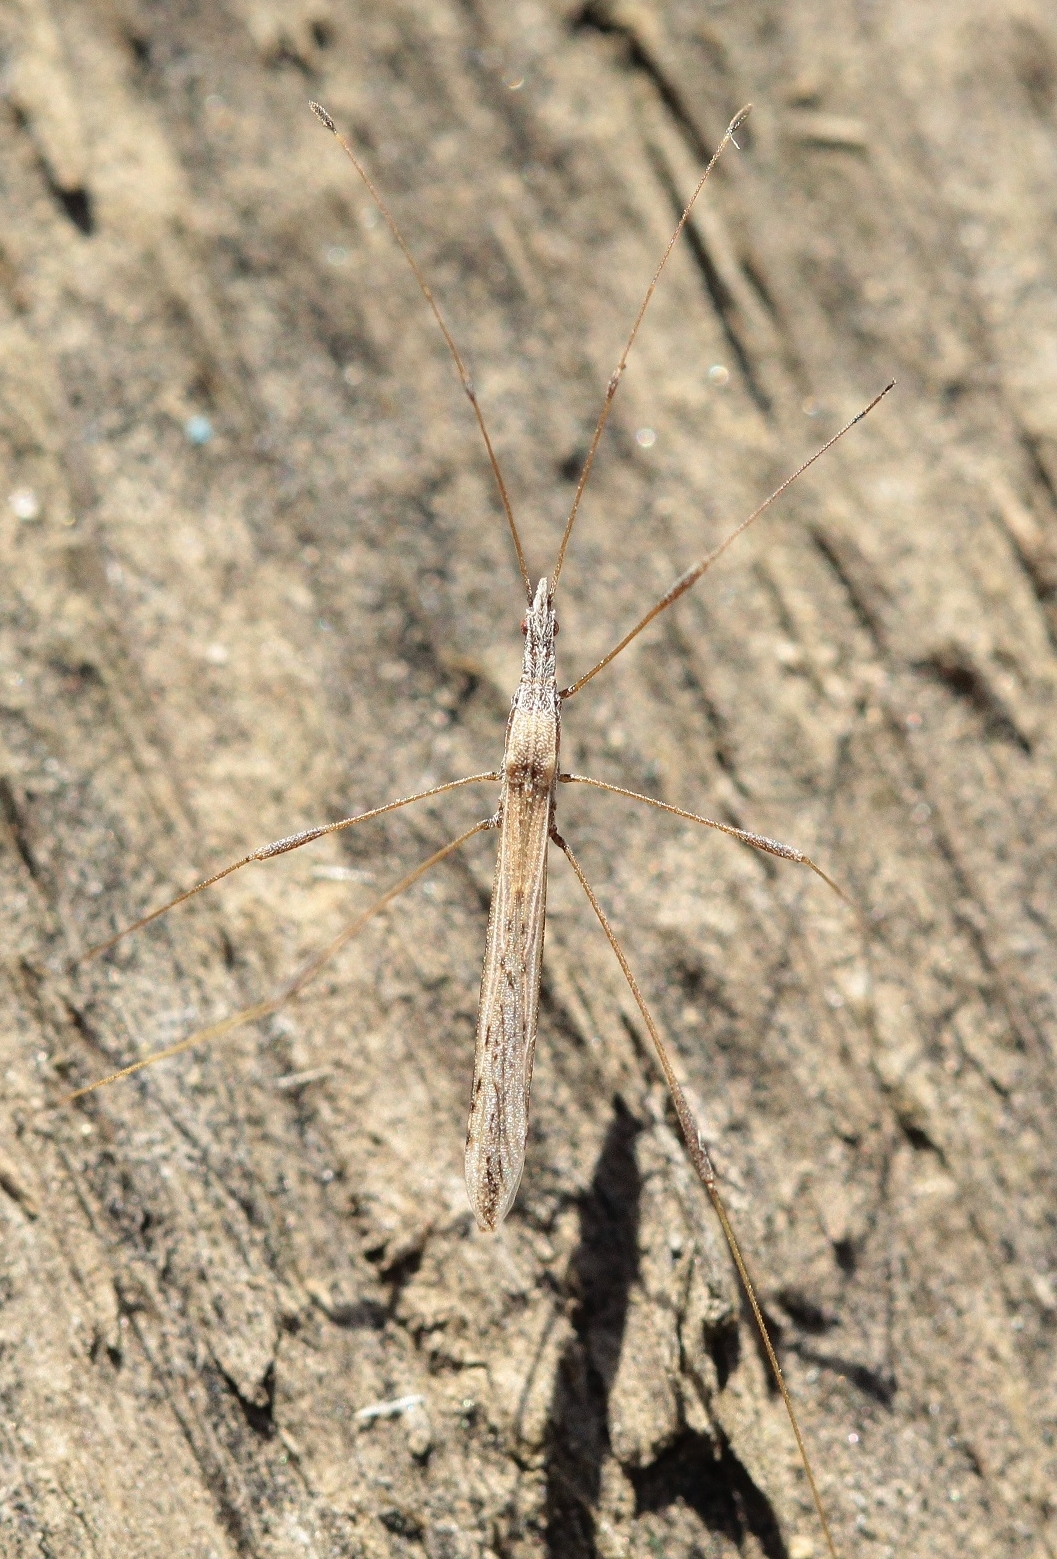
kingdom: Animalia
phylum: Arthropoda
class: Insecta
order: Hemiptera
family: Berytidae
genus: Neides
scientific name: Neides tipularius
